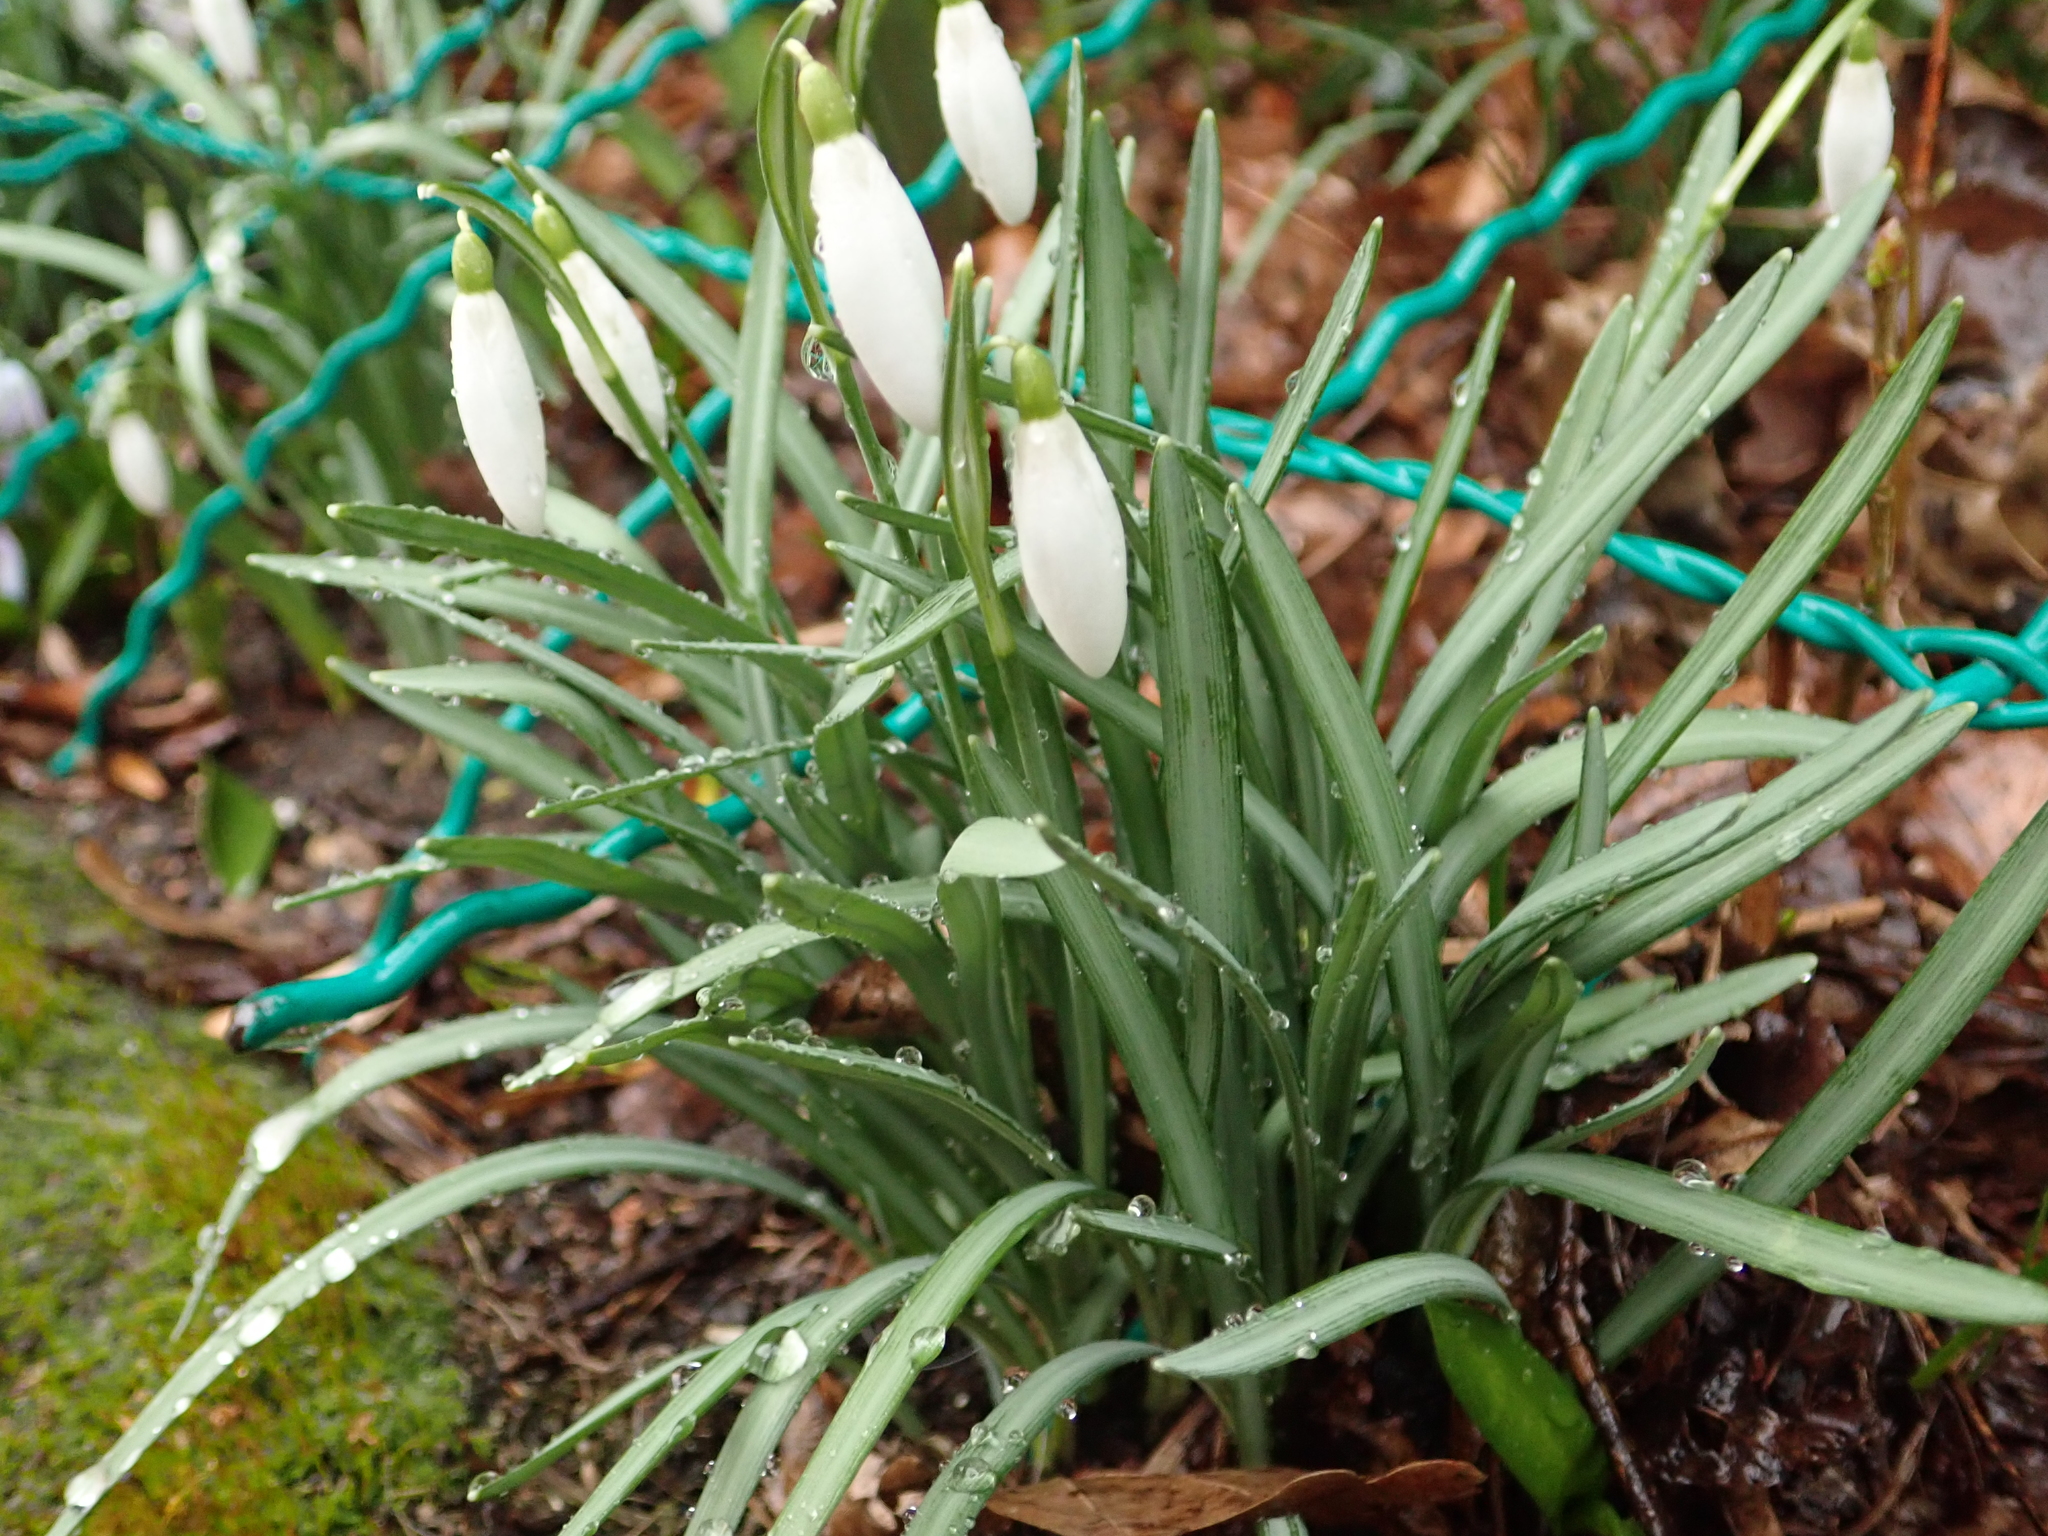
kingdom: Plantae
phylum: Tracheophyta
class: Liliopsida
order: Asparagales
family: Amaryllidaceae
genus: Galanthus
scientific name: Galanthus nivalis
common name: Snowdrop
